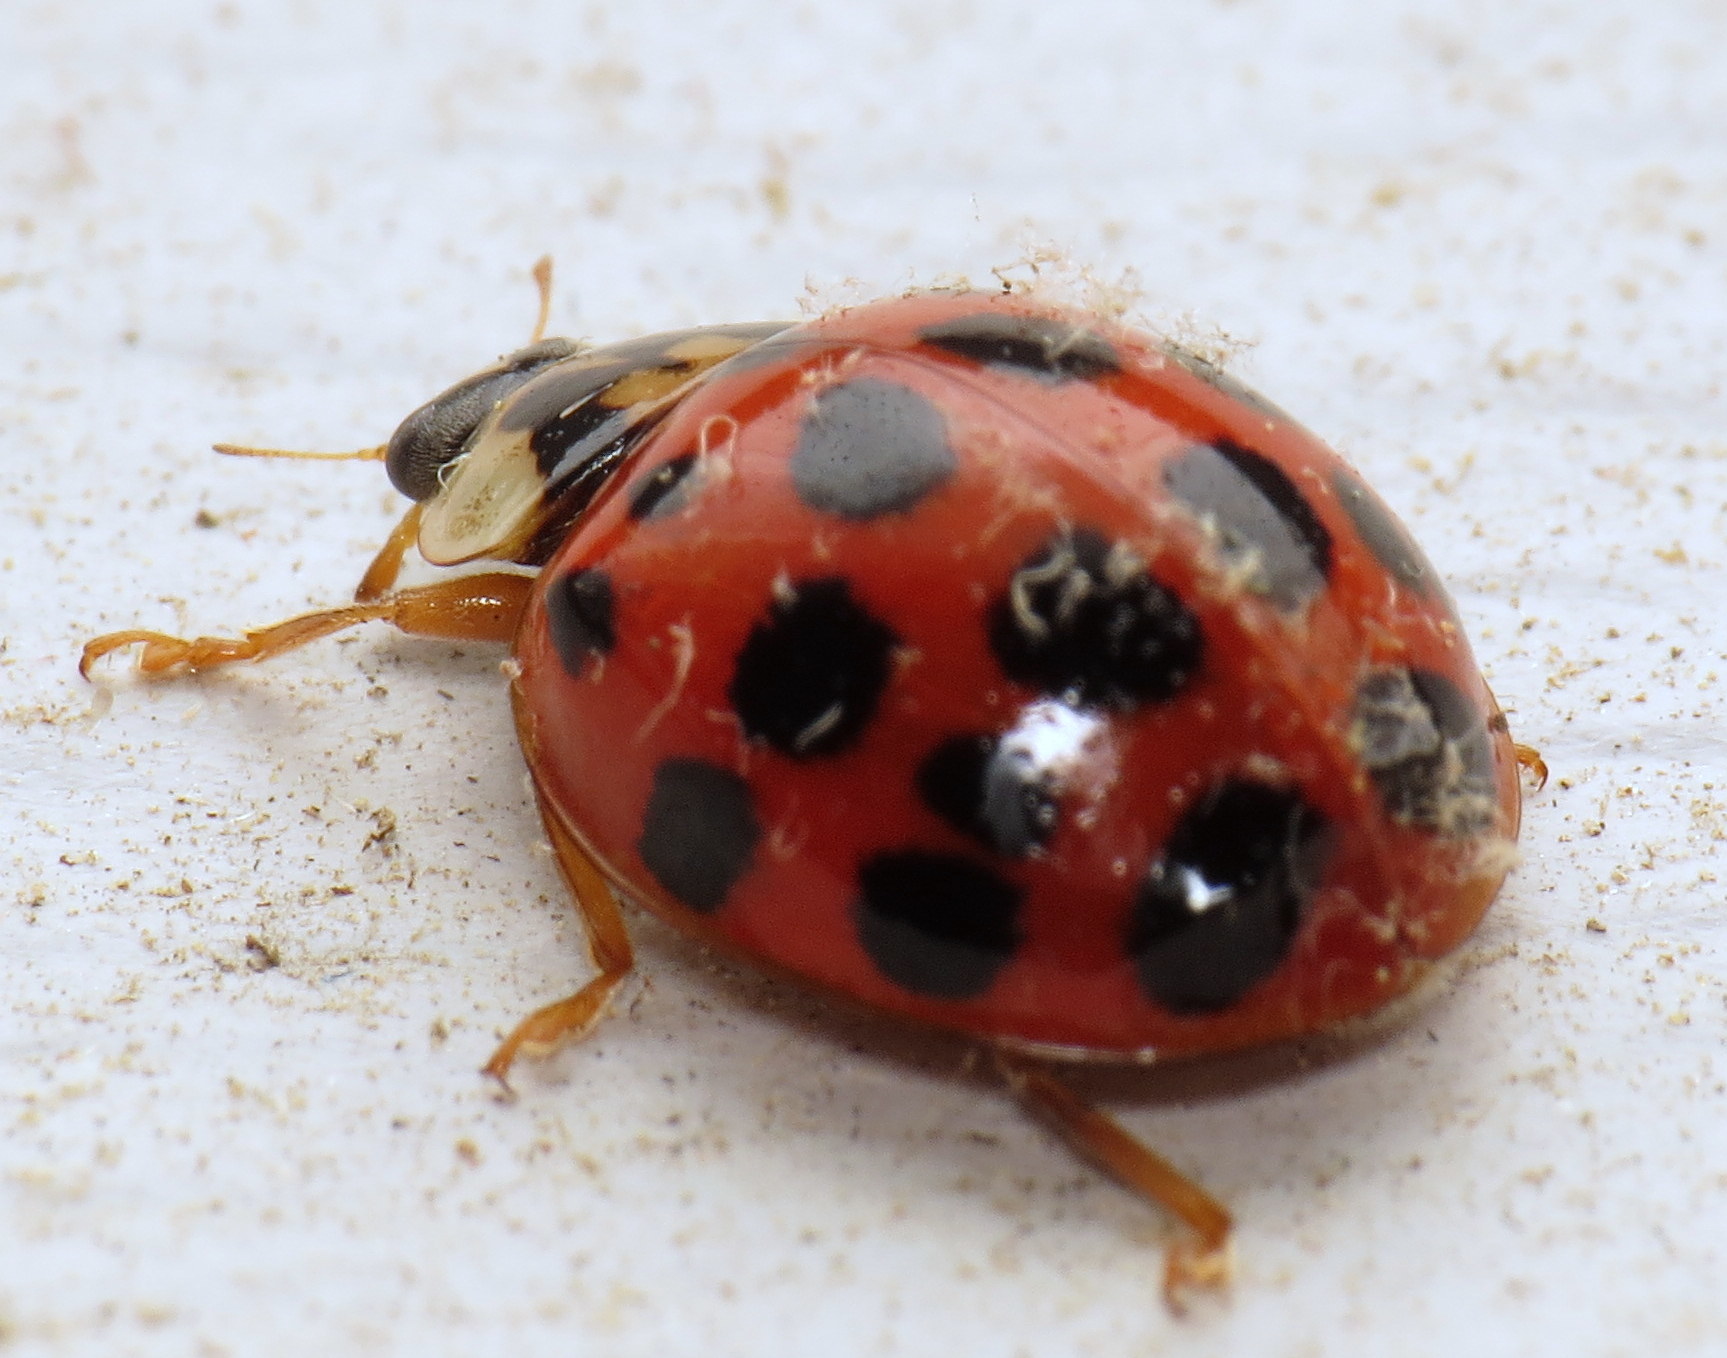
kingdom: Animalia
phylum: Arthropoda
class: Insecta
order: Coleoptera
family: Coccinellidae
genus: Harmonia
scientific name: Harmonia axyridis
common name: Harlequin ladybird
